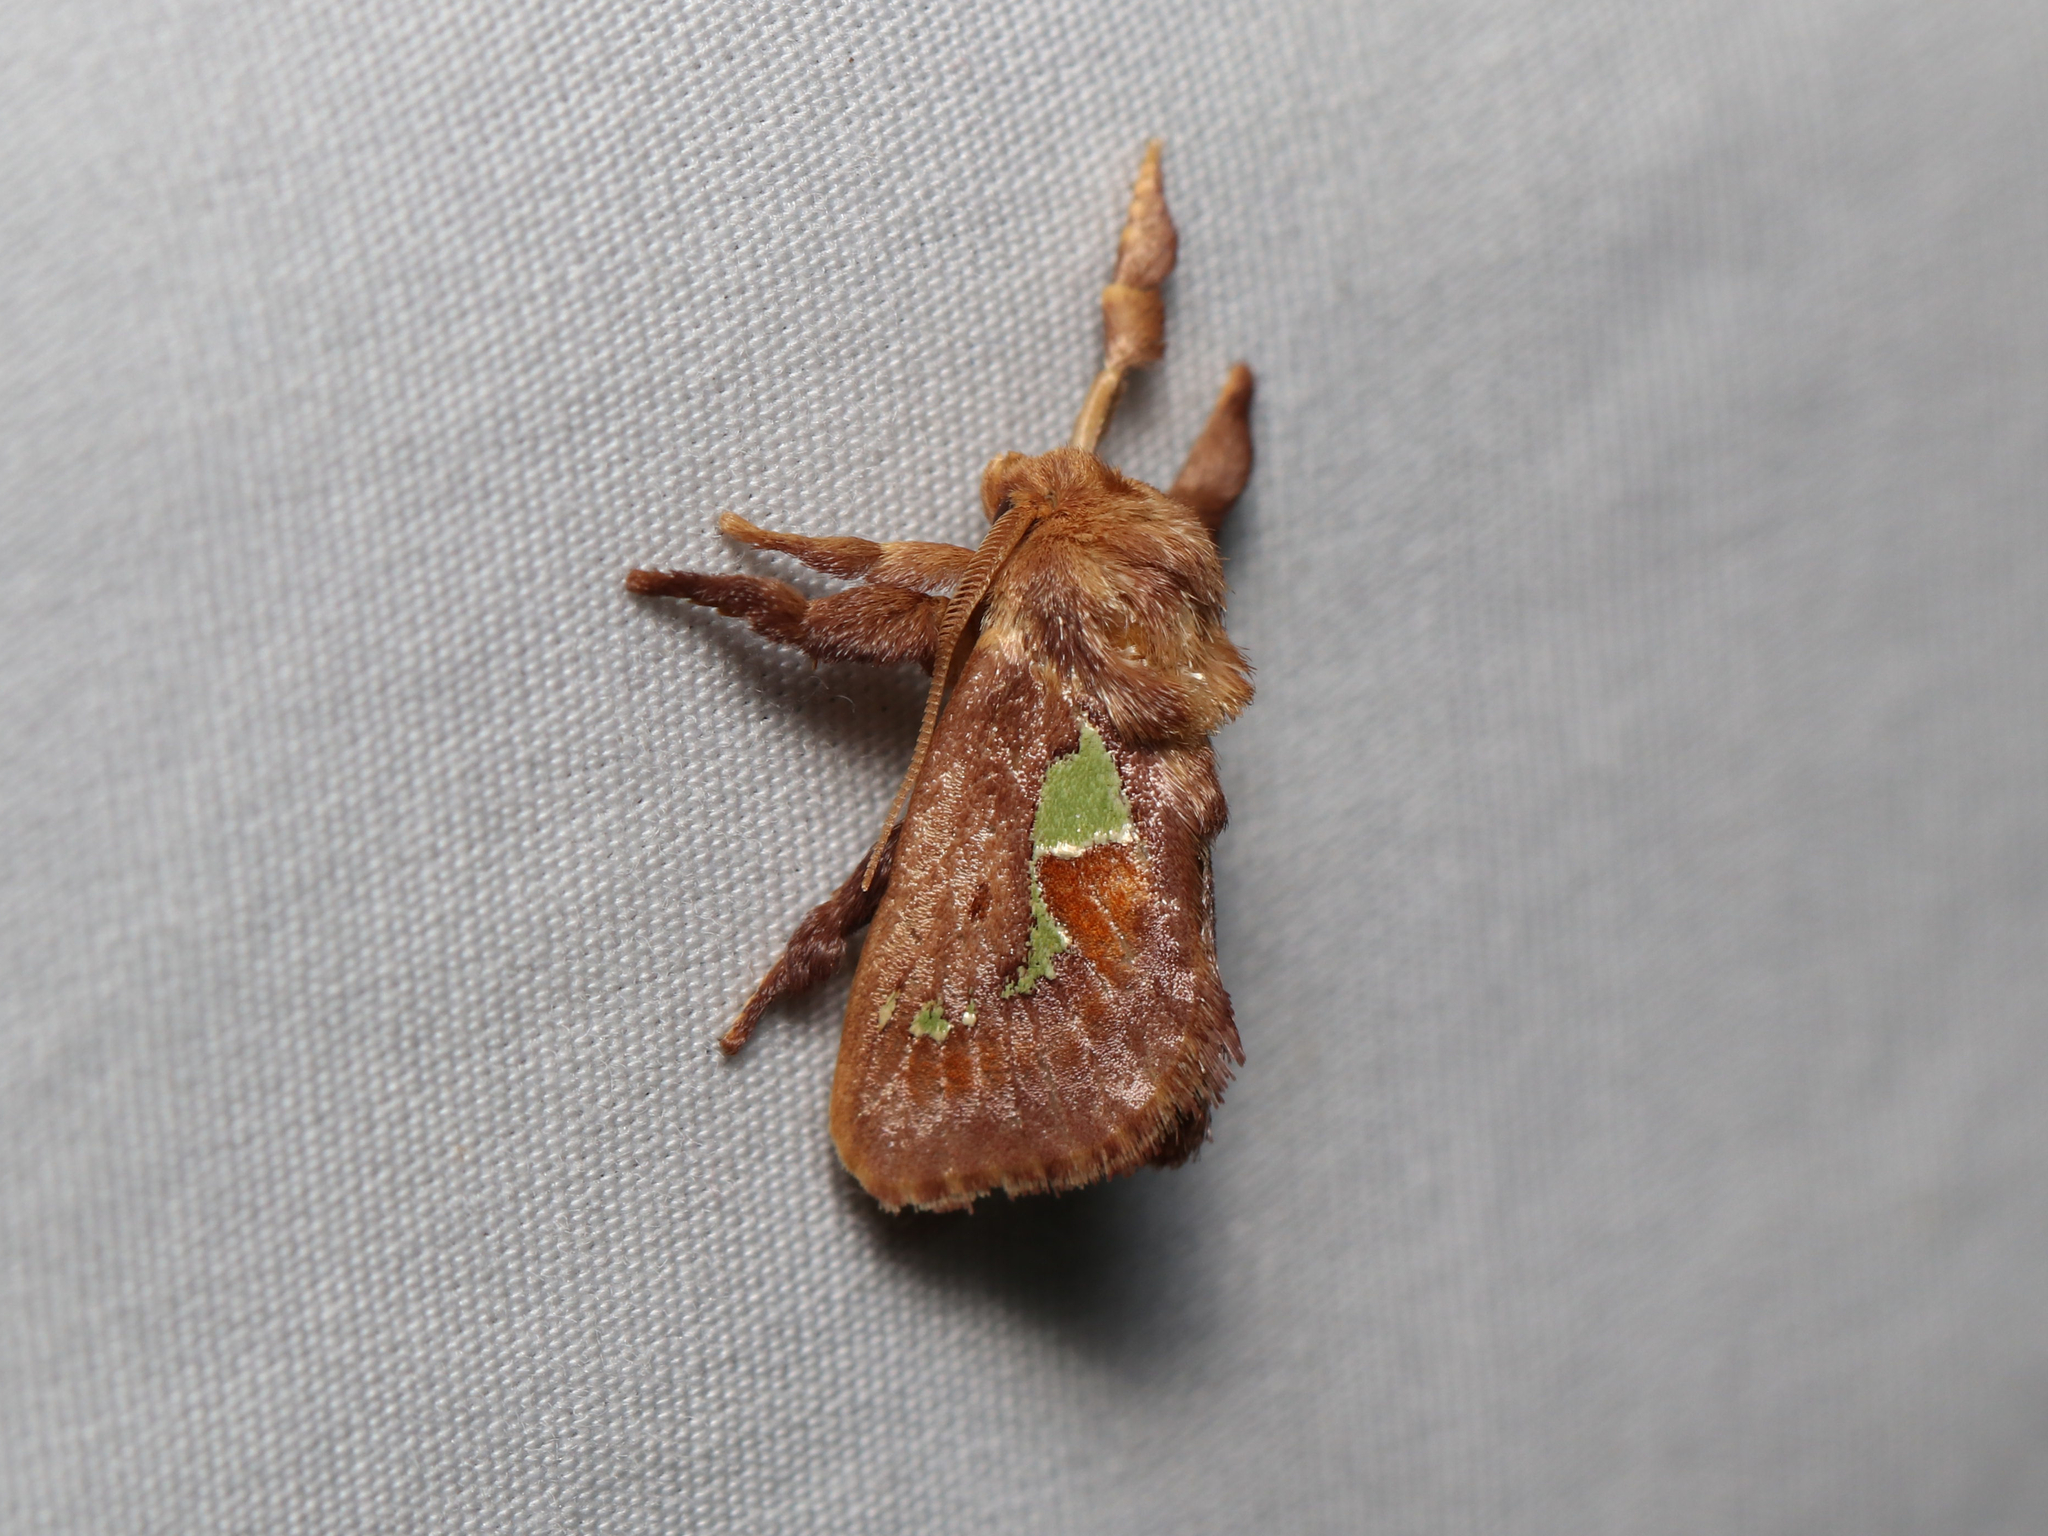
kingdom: Animalia
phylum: Arthropoda
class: Insecta
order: Lepidoptera
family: Limacodidae
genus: Euclea
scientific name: Euclea delphinii
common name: Spiny oak-slug moth
